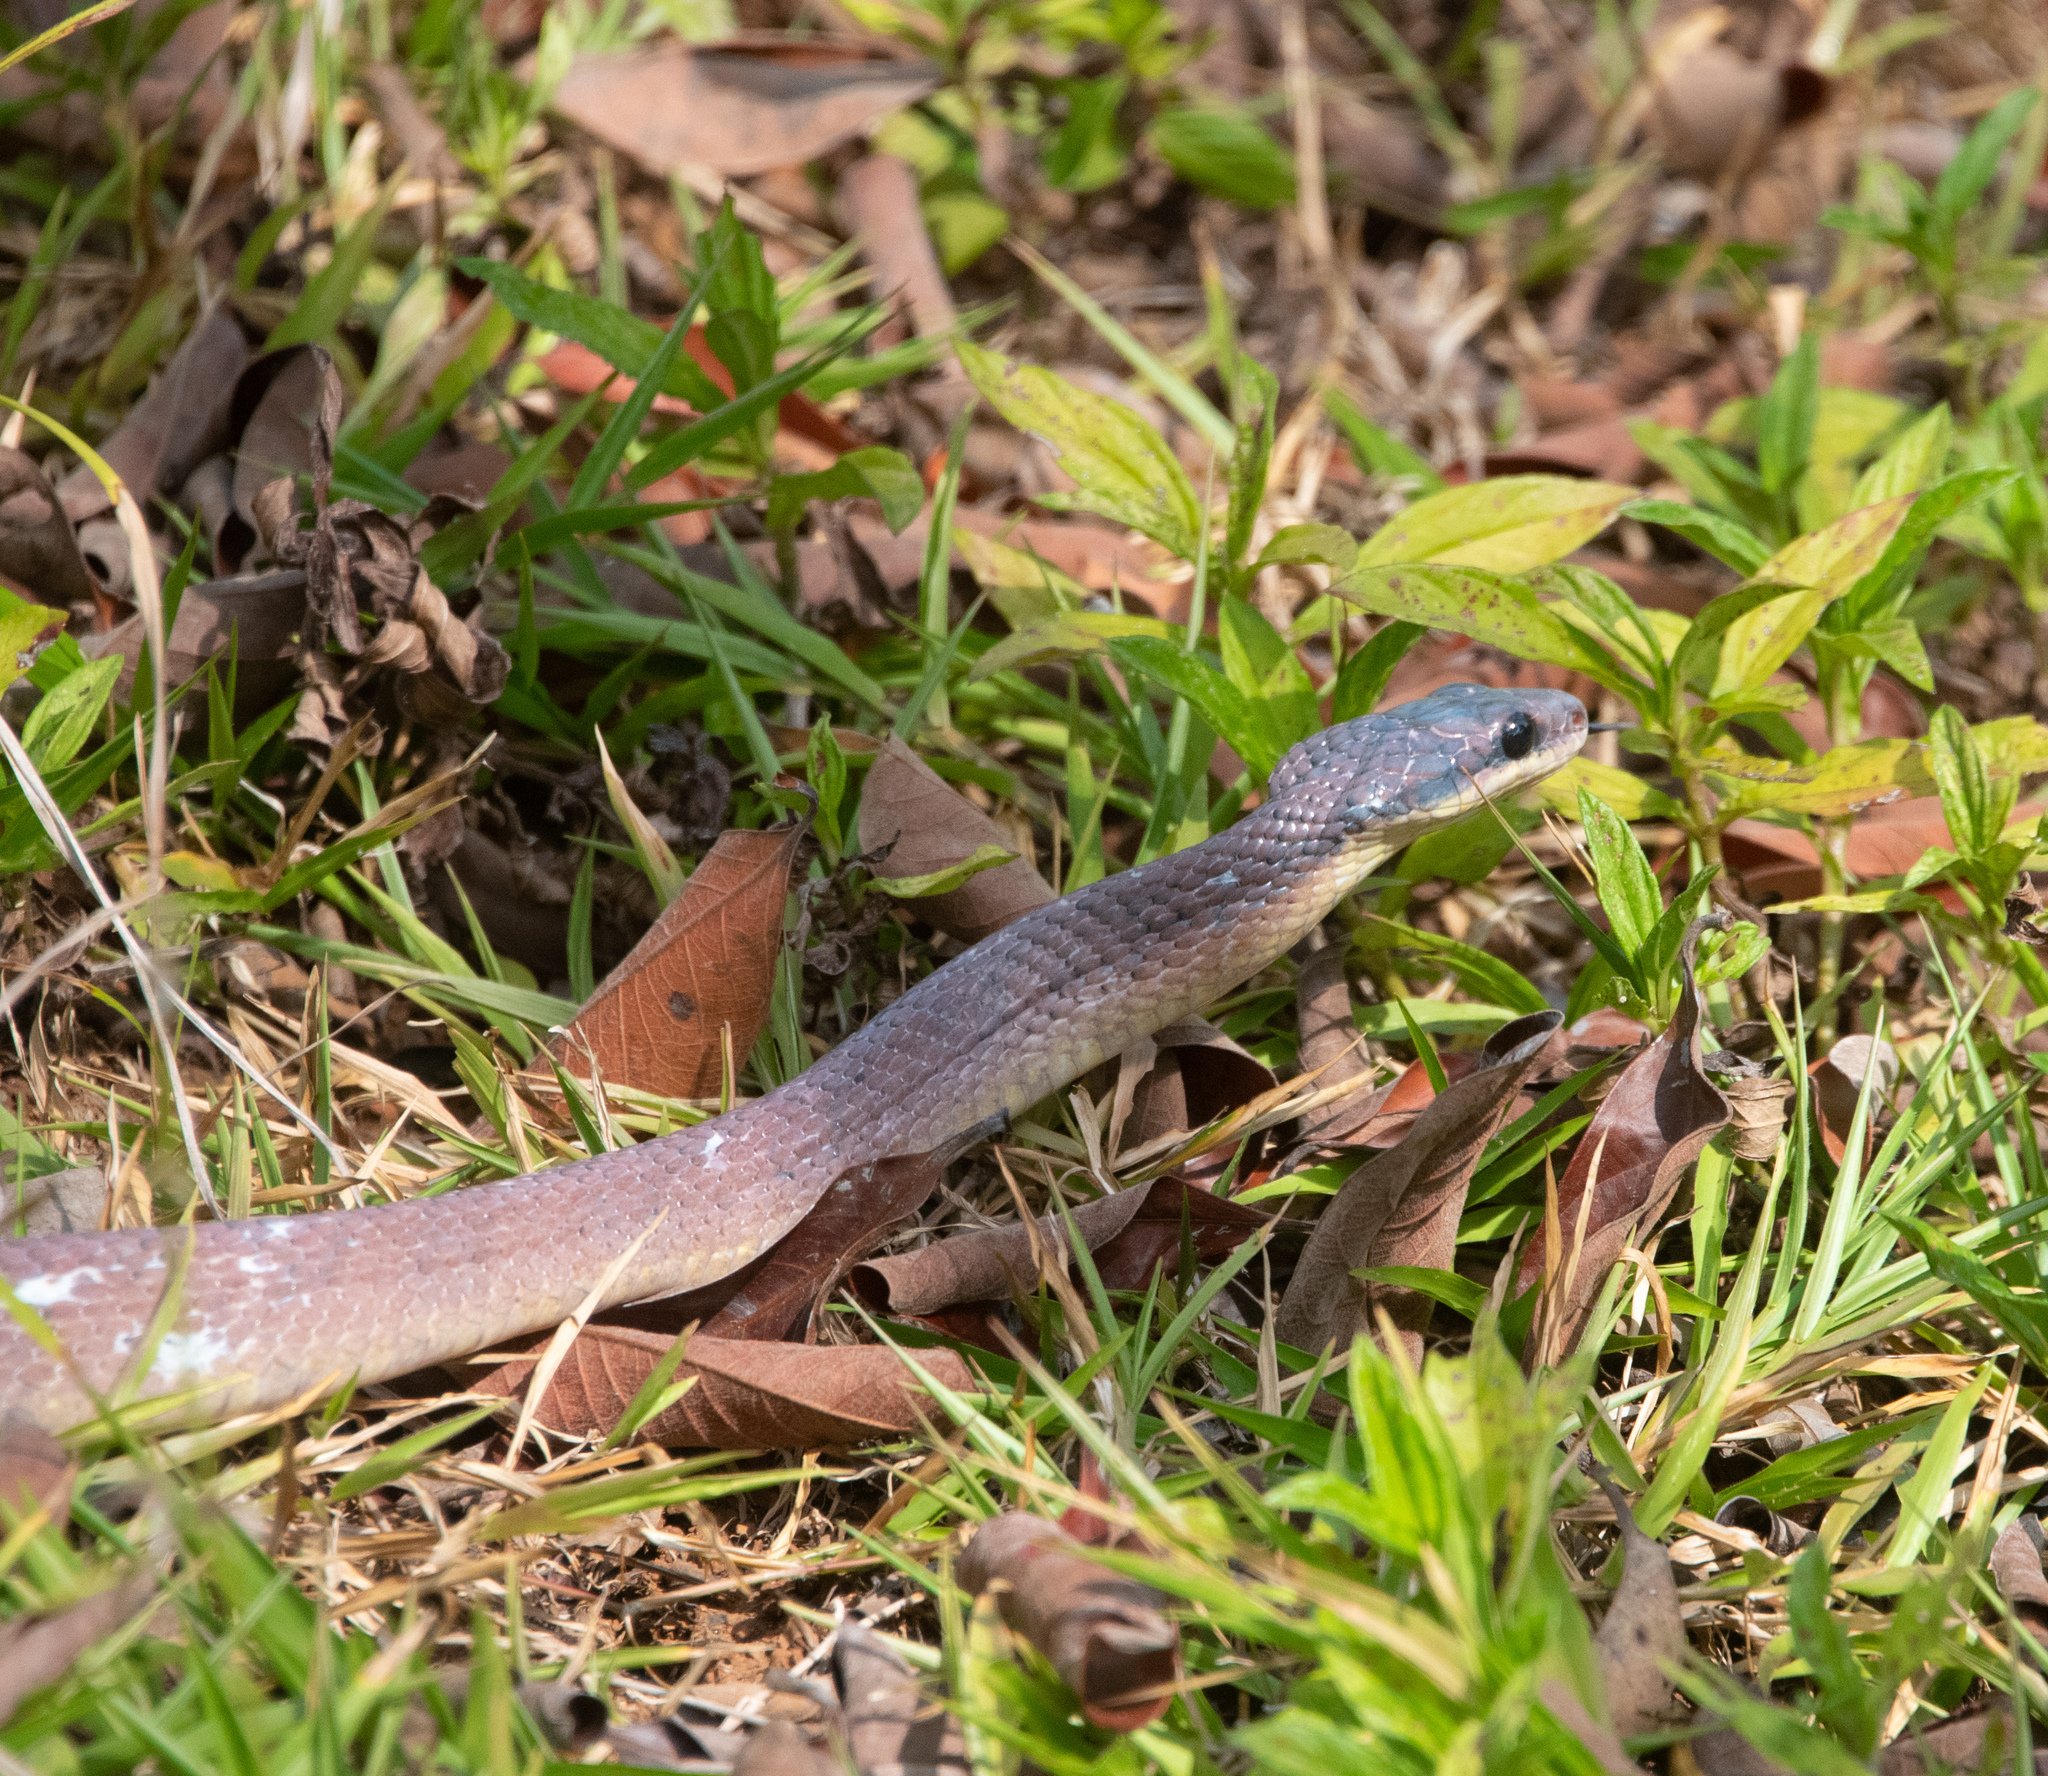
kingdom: Animalia
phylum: Chordata
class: Squamata
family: Colubridae
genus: Phrynonax
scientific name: Phrynonax poecilonotus
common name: Puffing snake
